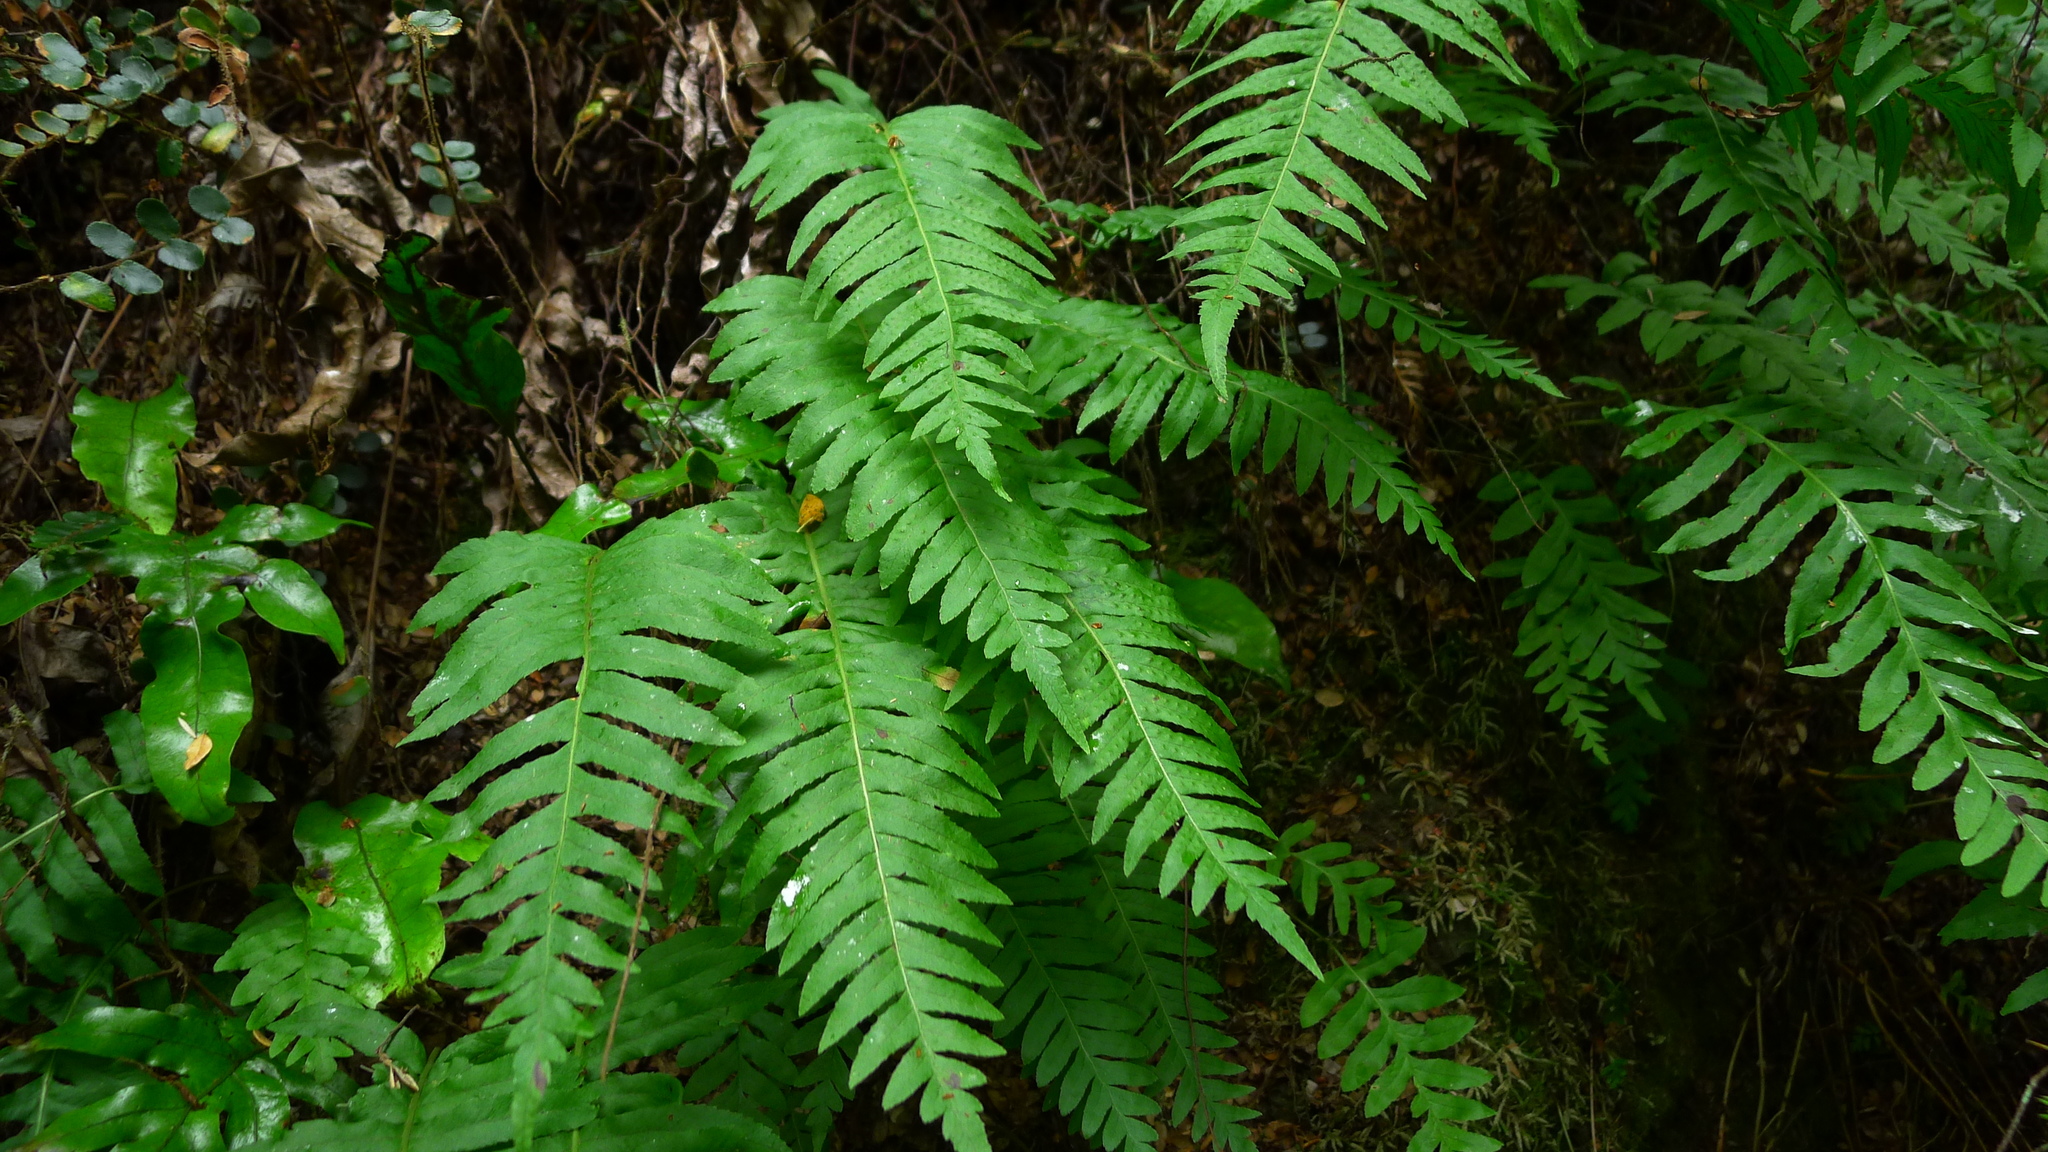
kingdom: Plantae
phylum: Tracheophyta
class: Polypodiopsida
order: Polypodiales
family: Polypodiaceae
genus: Polypodium
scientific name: Polypodium vulgare
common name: Common polypody
